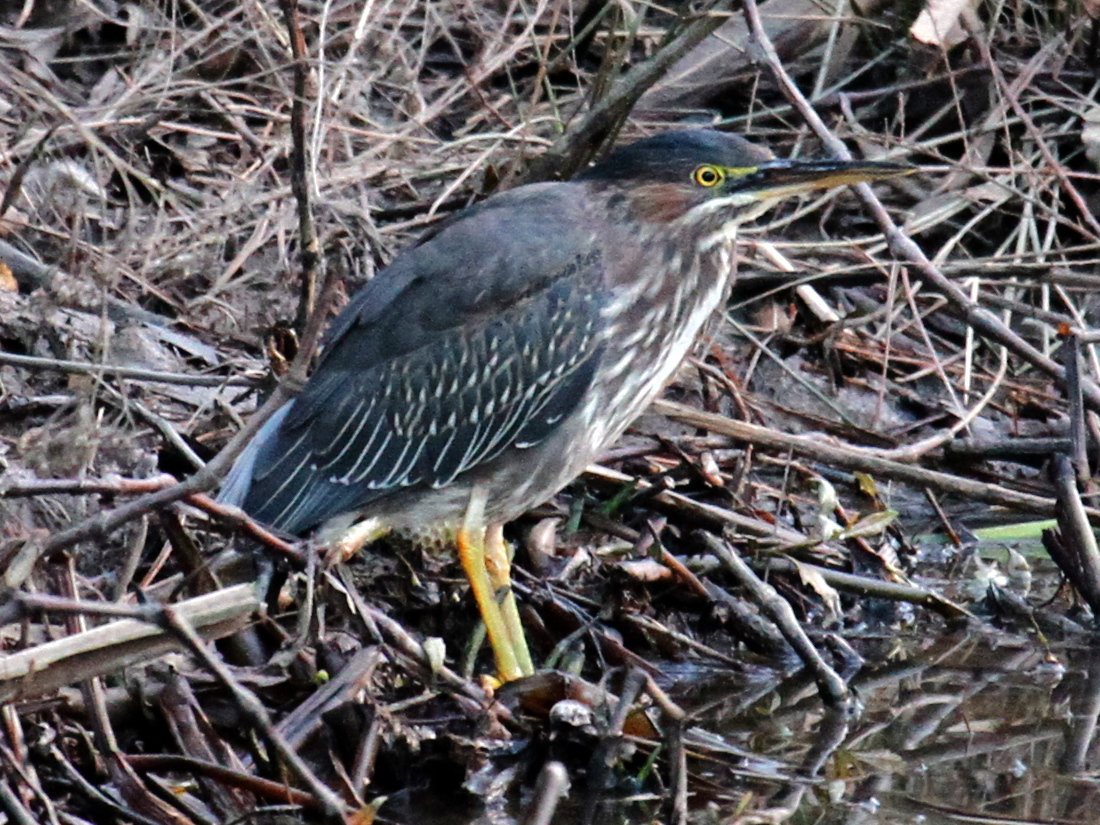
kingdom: Animalia
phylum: Chordata
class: Aves
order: Pelecaniformes
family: Ardeidae
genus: Butorides
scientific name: Butorides virescens
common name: Green heron
